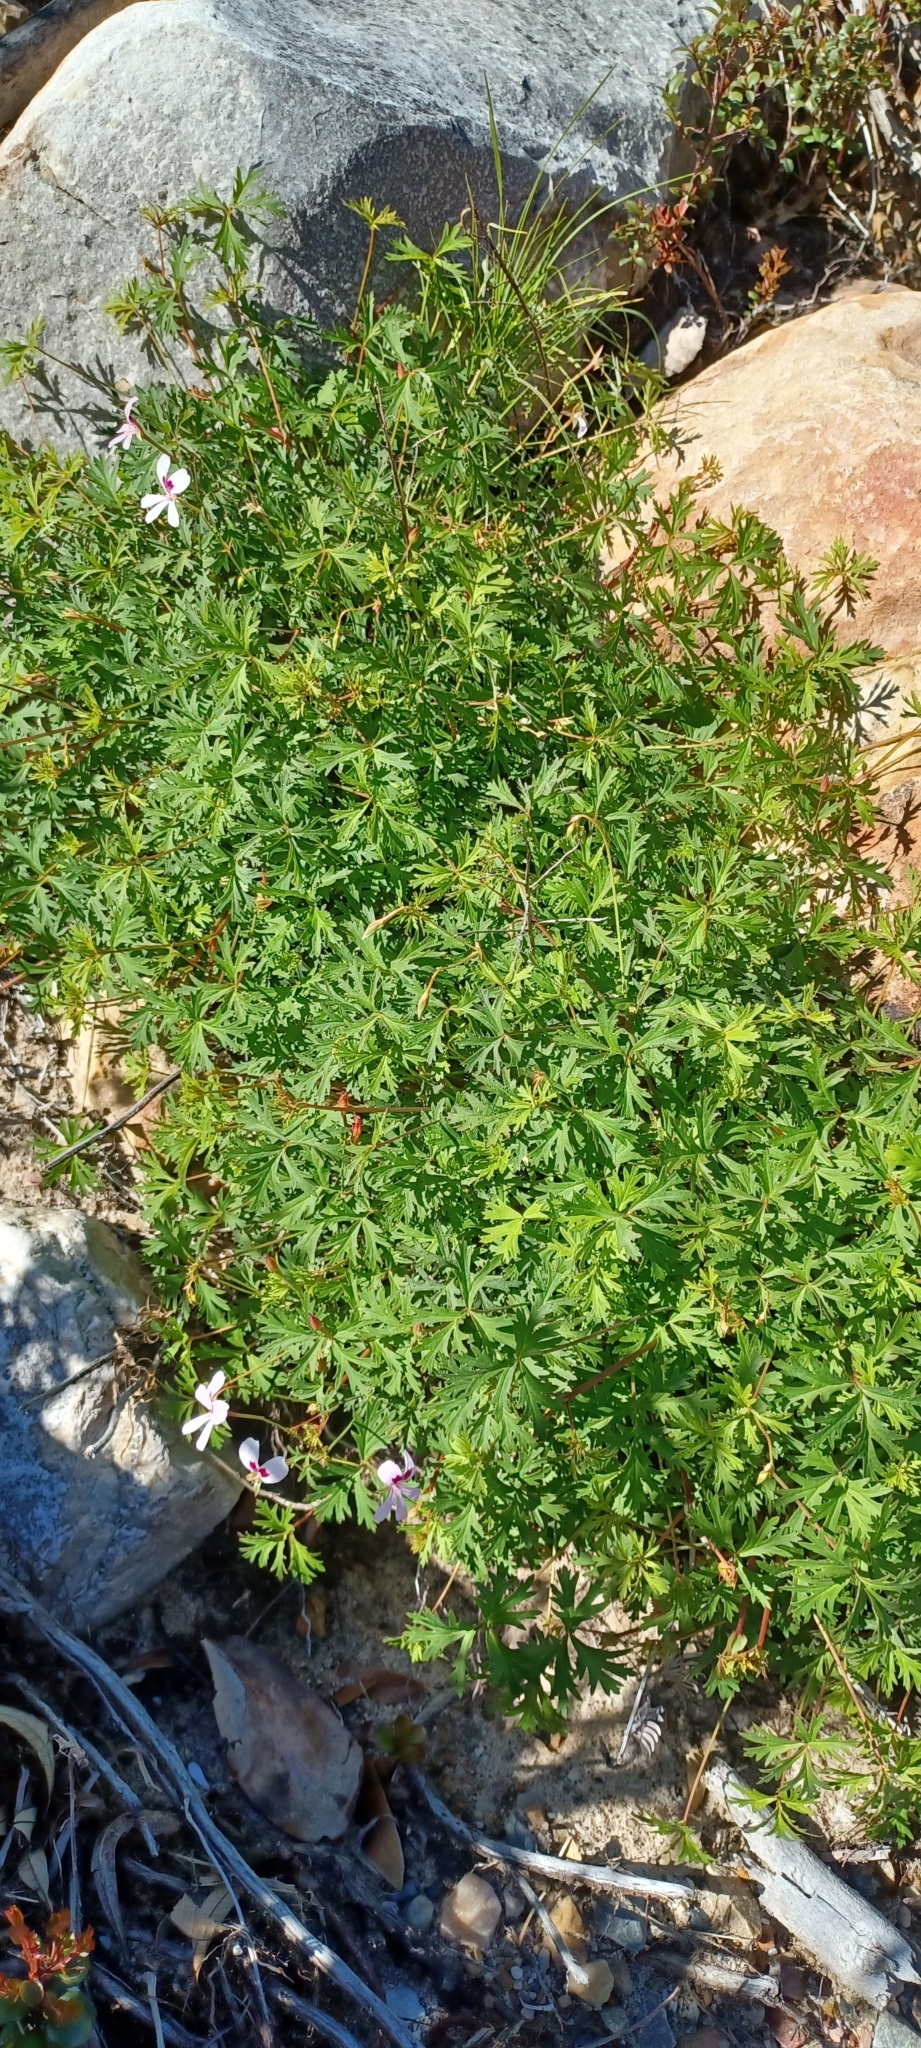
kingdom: Plantae
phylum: Tracheophyta
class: Magnoliopsida
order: Geraniales
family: Geraniaceae
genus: Pelargonium
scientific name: Pelargonium patulum
